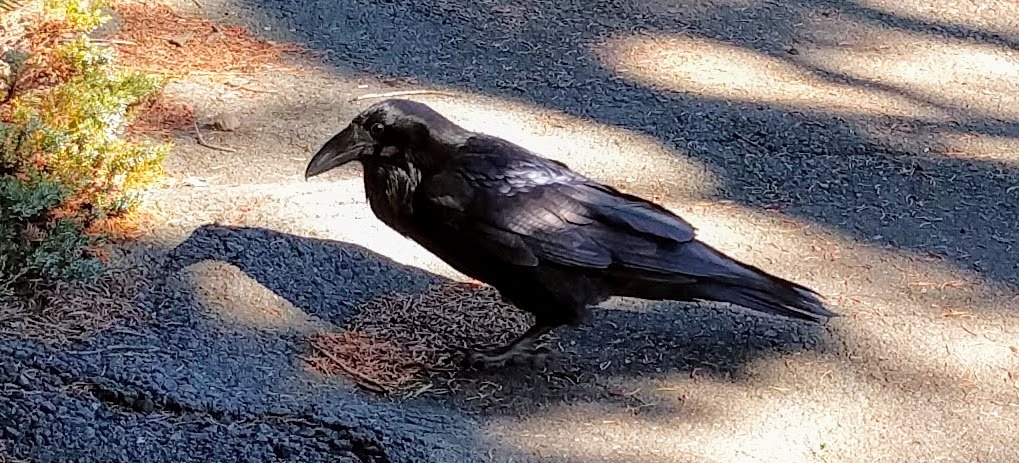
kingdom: Animalia
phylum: Chordata
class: Aves
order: Passeriformes
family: Corvidae
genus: Corvus
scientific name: Corvus corax
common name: Common raven
